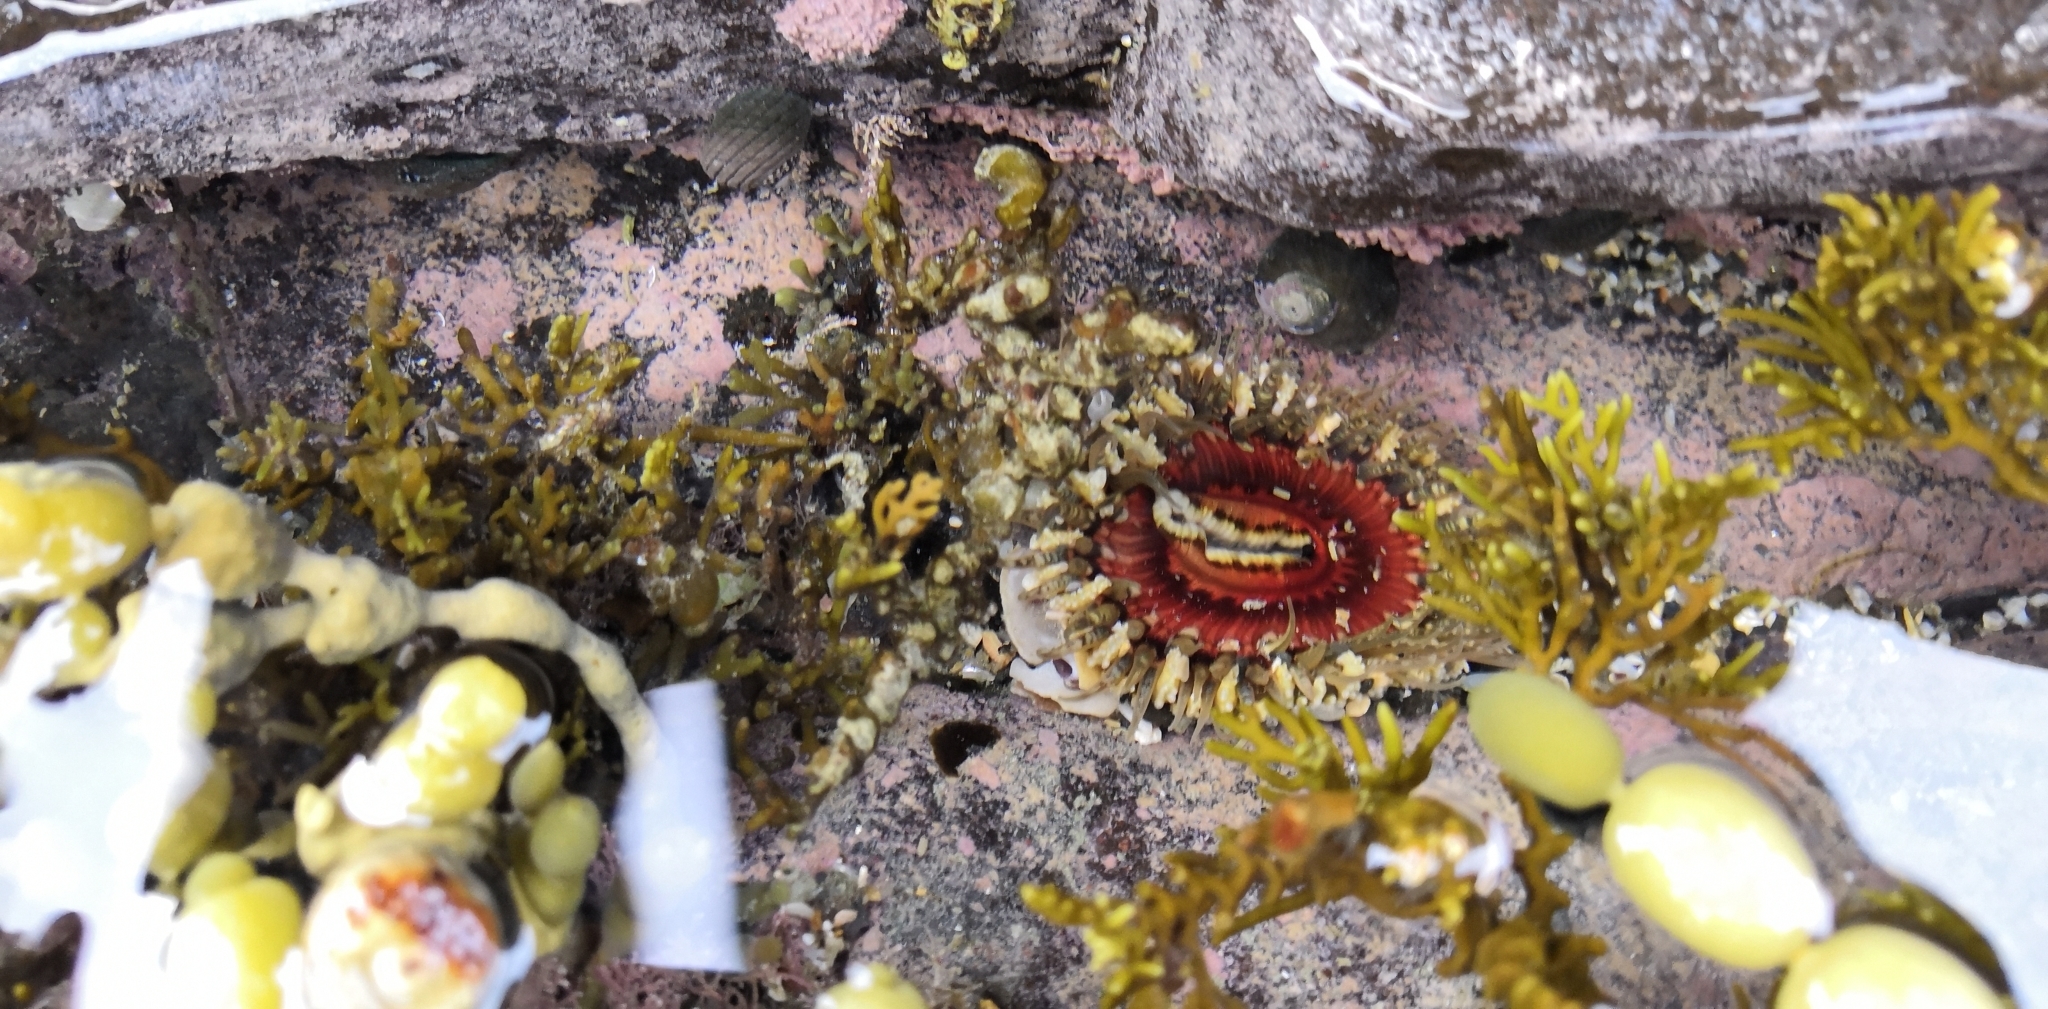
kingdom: Animalia
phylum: Cnidaria
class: Anthozoa
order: Actiniaria
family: Actiniidae
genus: Oulactis
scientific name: Oulactis muscosa
